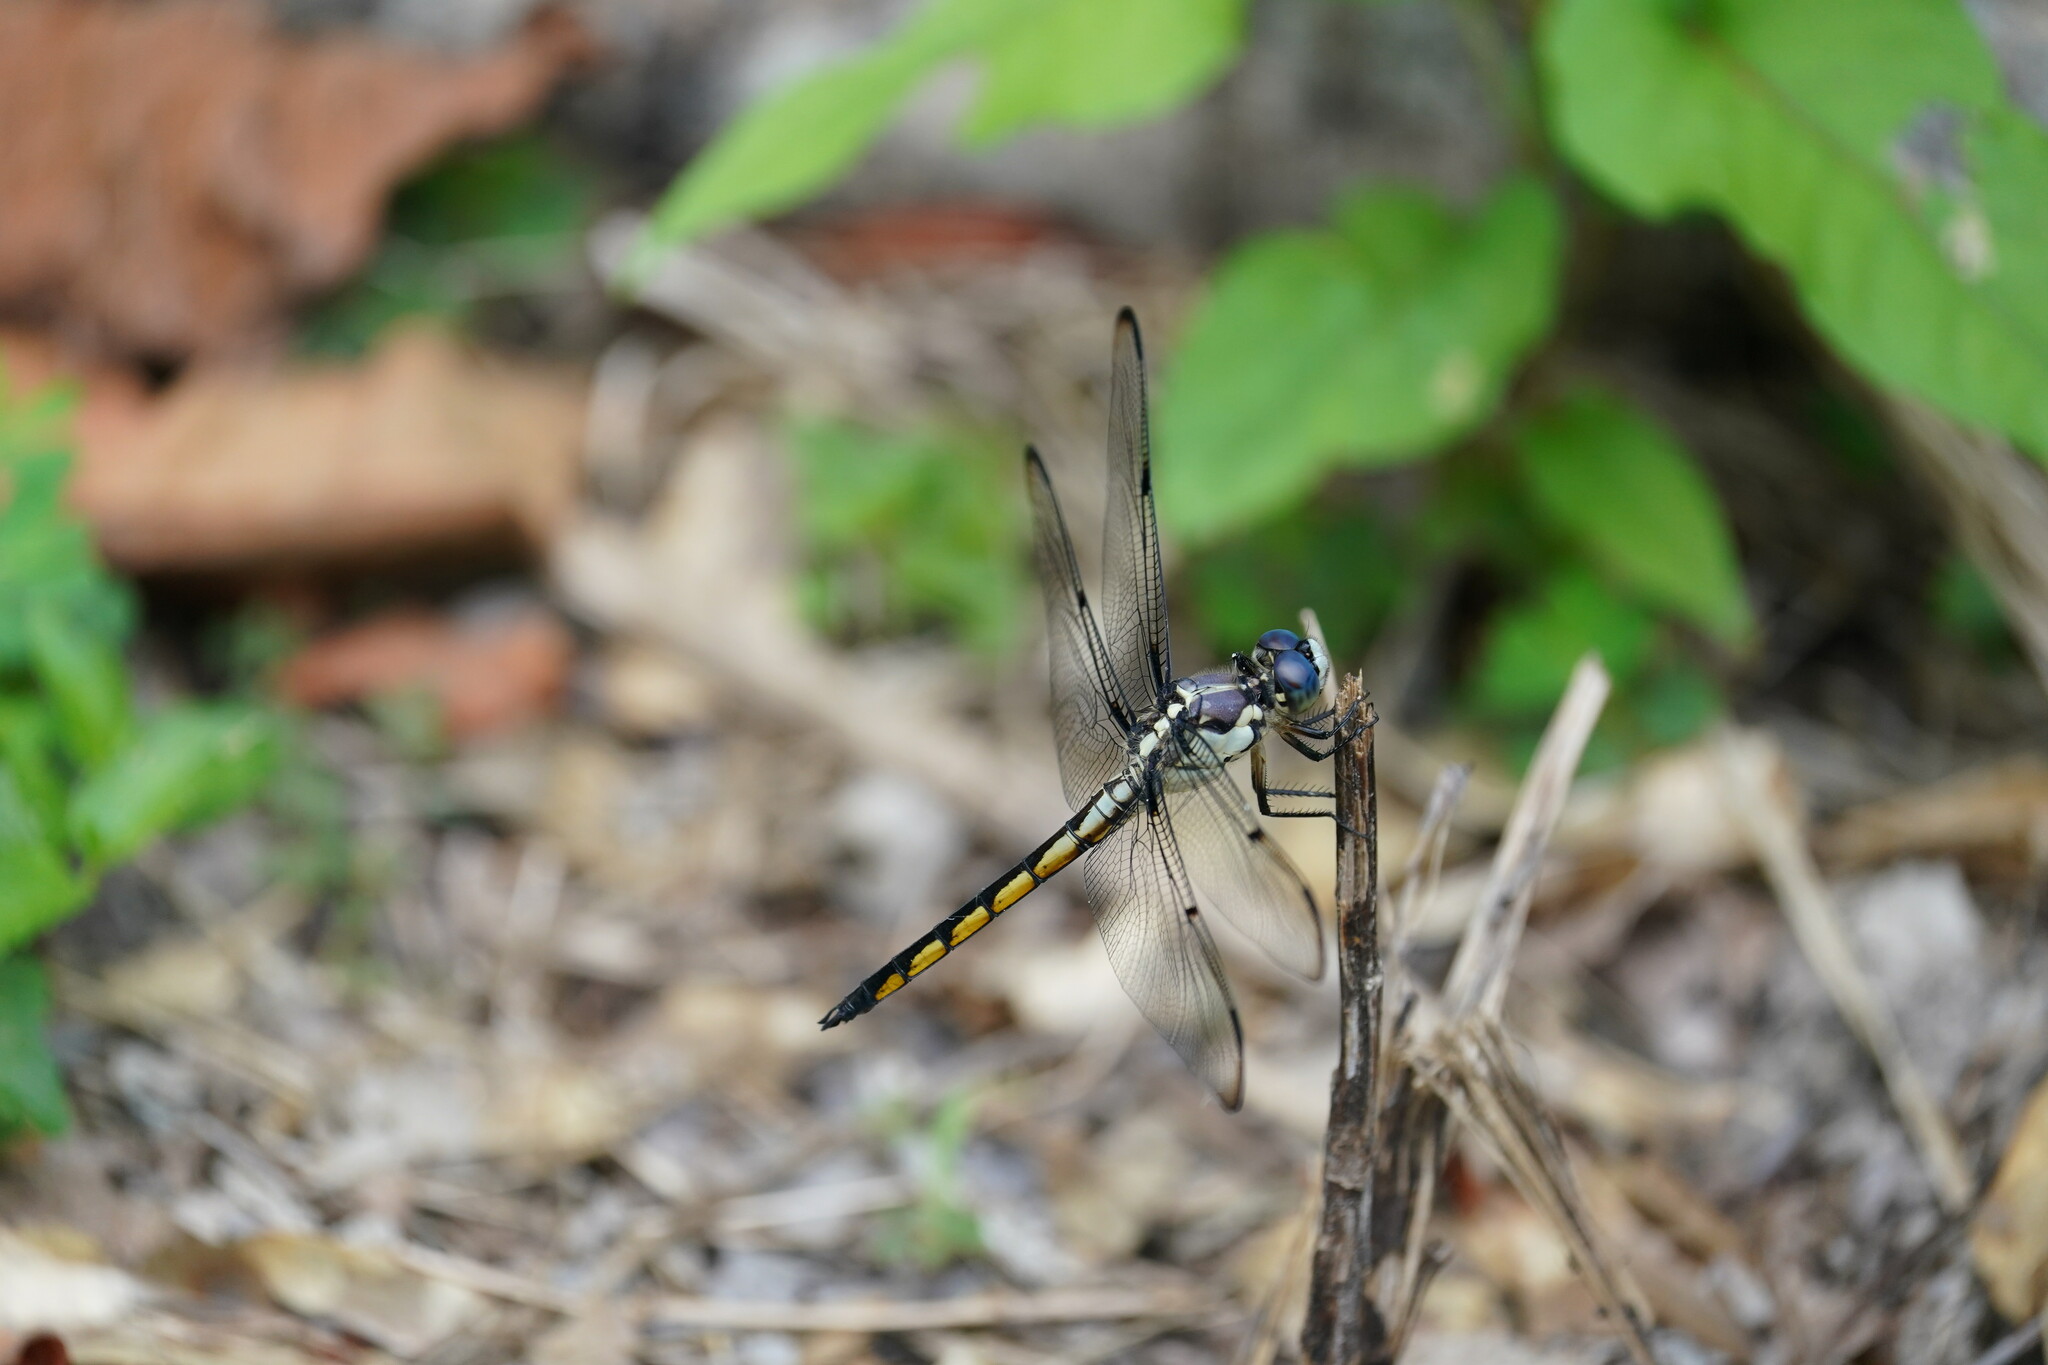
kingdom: Animalia
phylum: Arthropoda
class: Insecta
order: Odonata
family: Libellulidae
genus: Libellula
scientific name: Libellula vibrans
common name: Great blue skimmer
